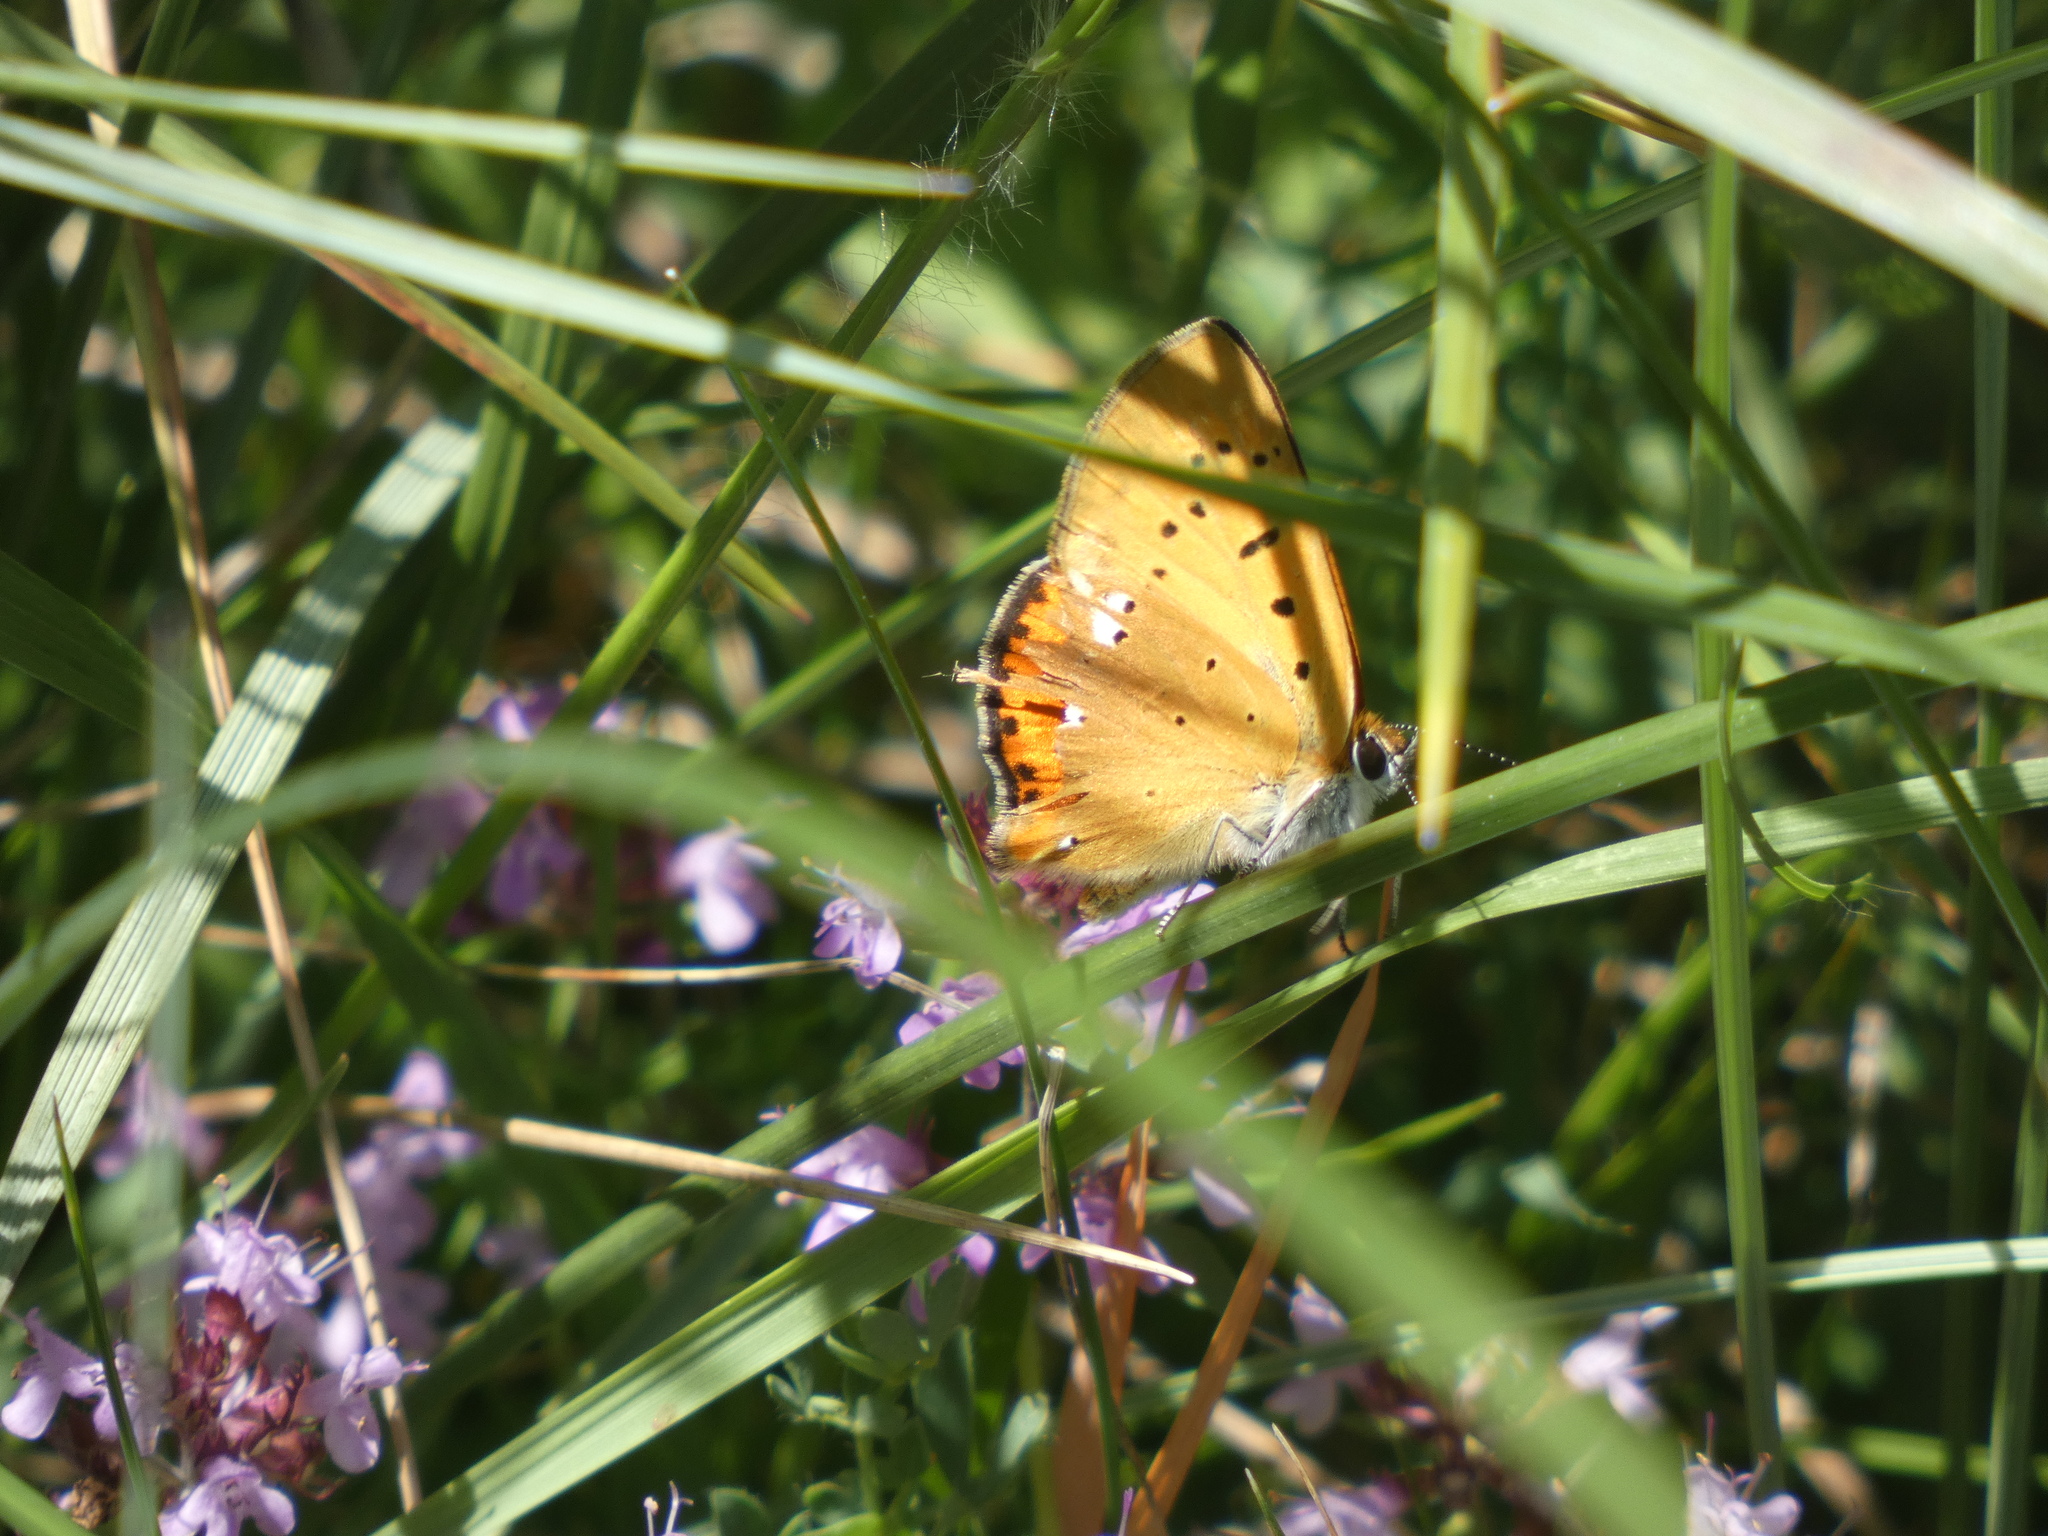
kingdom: Animalia
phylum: Arthropoda
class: Insecta
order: Lepidoptera
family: Lycaenidae
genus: Lycaena
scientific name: Lycaena virgaureae
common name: Scarce copper
